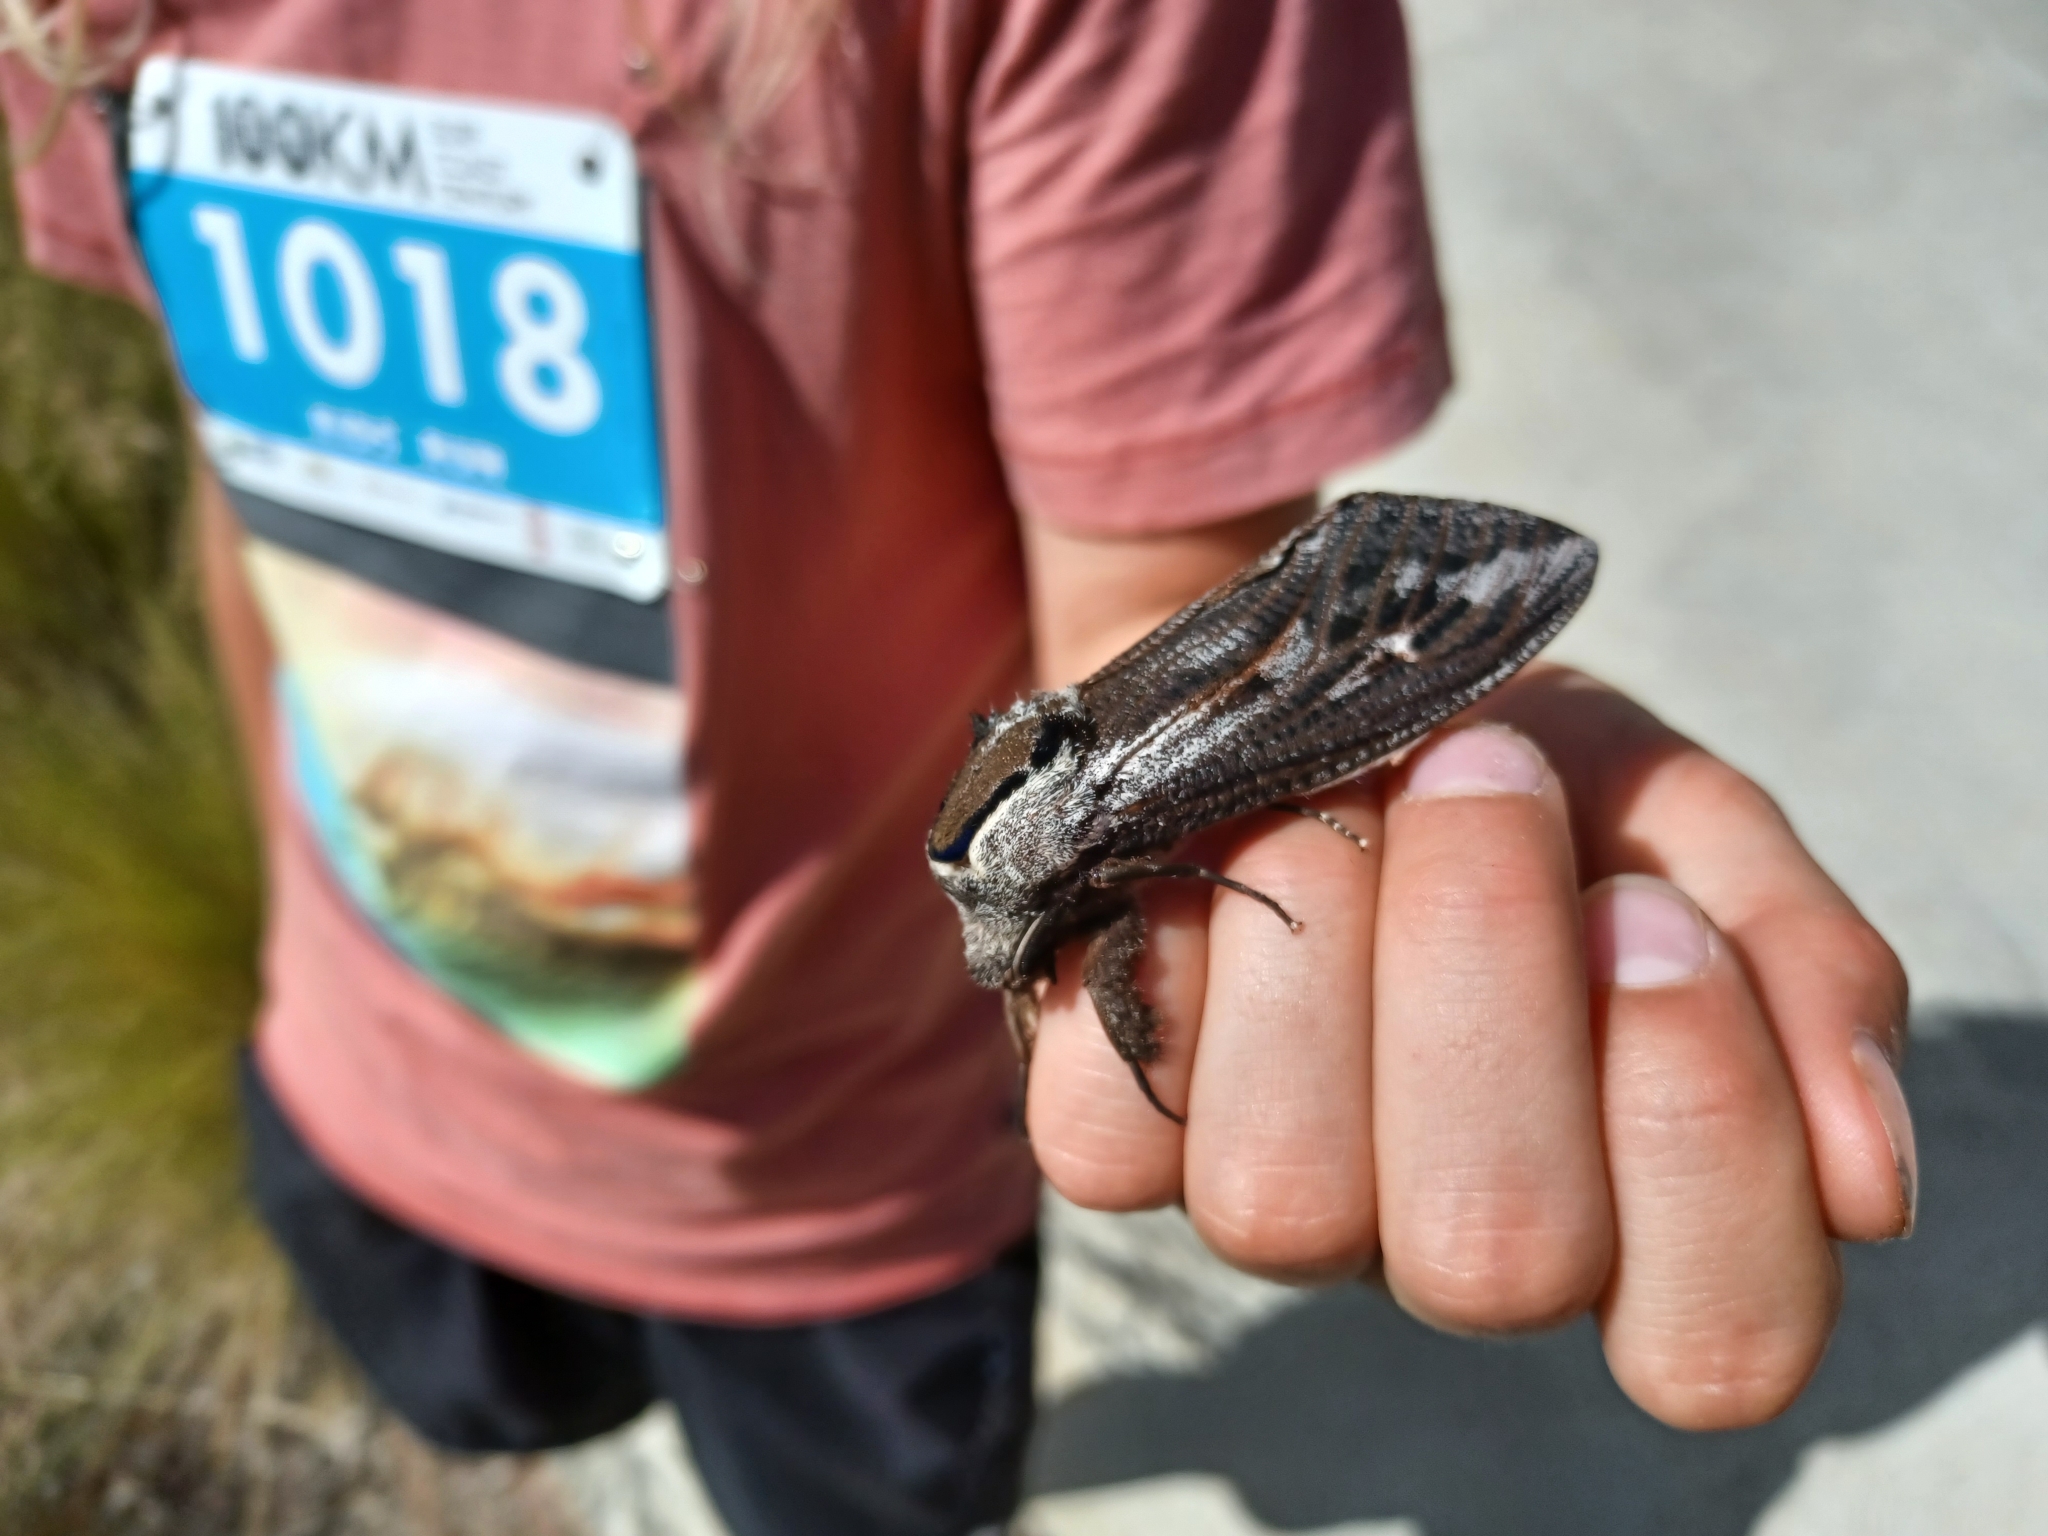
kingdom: Animalia
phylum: Arthropoda
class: Insecta
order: Lepidoptera
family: Cossidae
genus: Endoxyla
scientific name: Endoxyla encalypti
